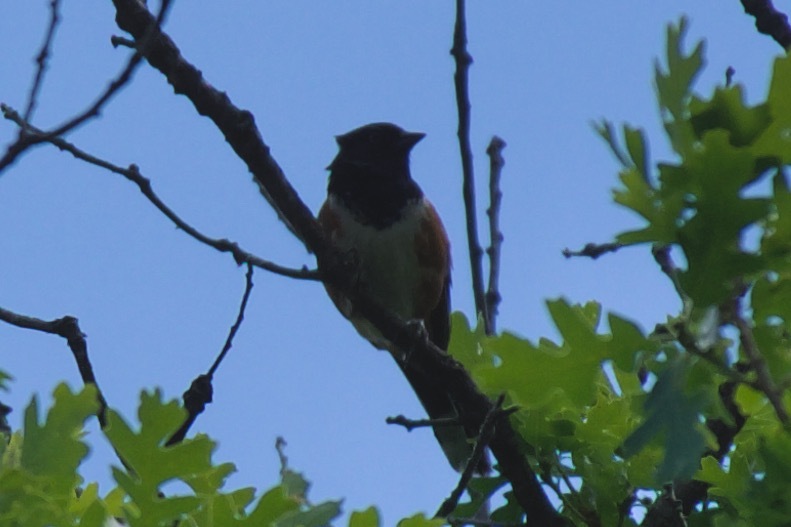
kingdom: Animalia
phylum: Chordata
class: Aves
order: Passeriformes
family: Passerellidae
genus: Pipilo
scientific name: Pipilo maculatus
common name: Spotted towhee
